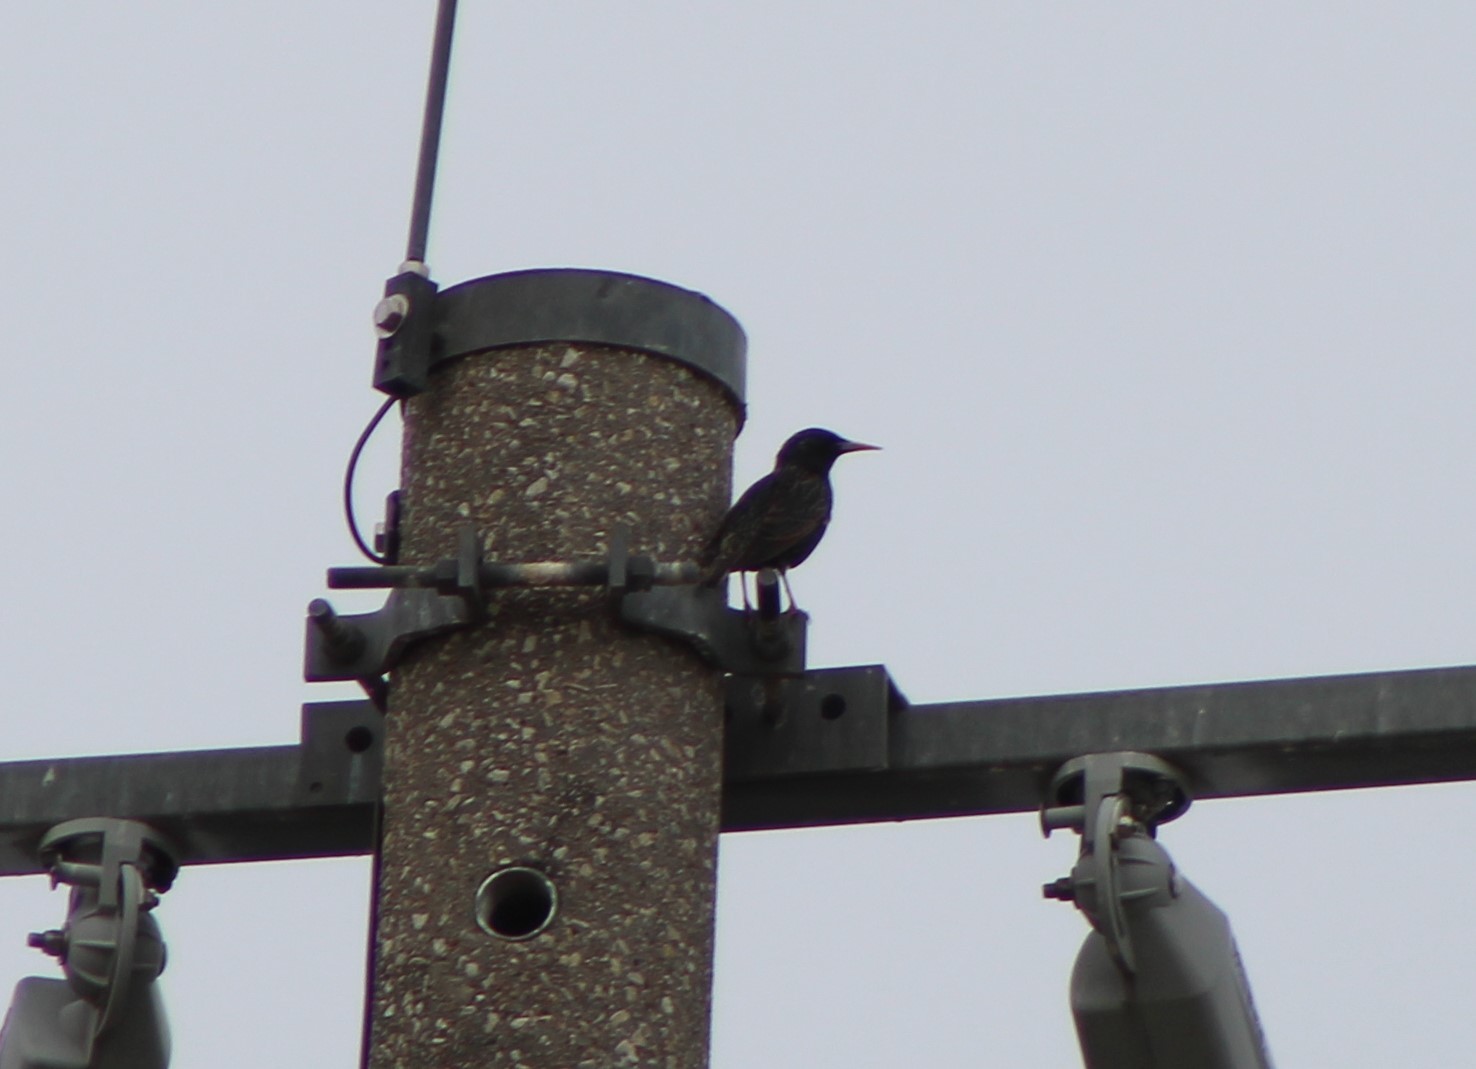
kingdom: Animalia
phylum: Chordata
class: Aves
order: Passeriformes
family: Sturnidae
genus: Sturnus
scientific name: Sturnus vulgaris
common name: Common starling
